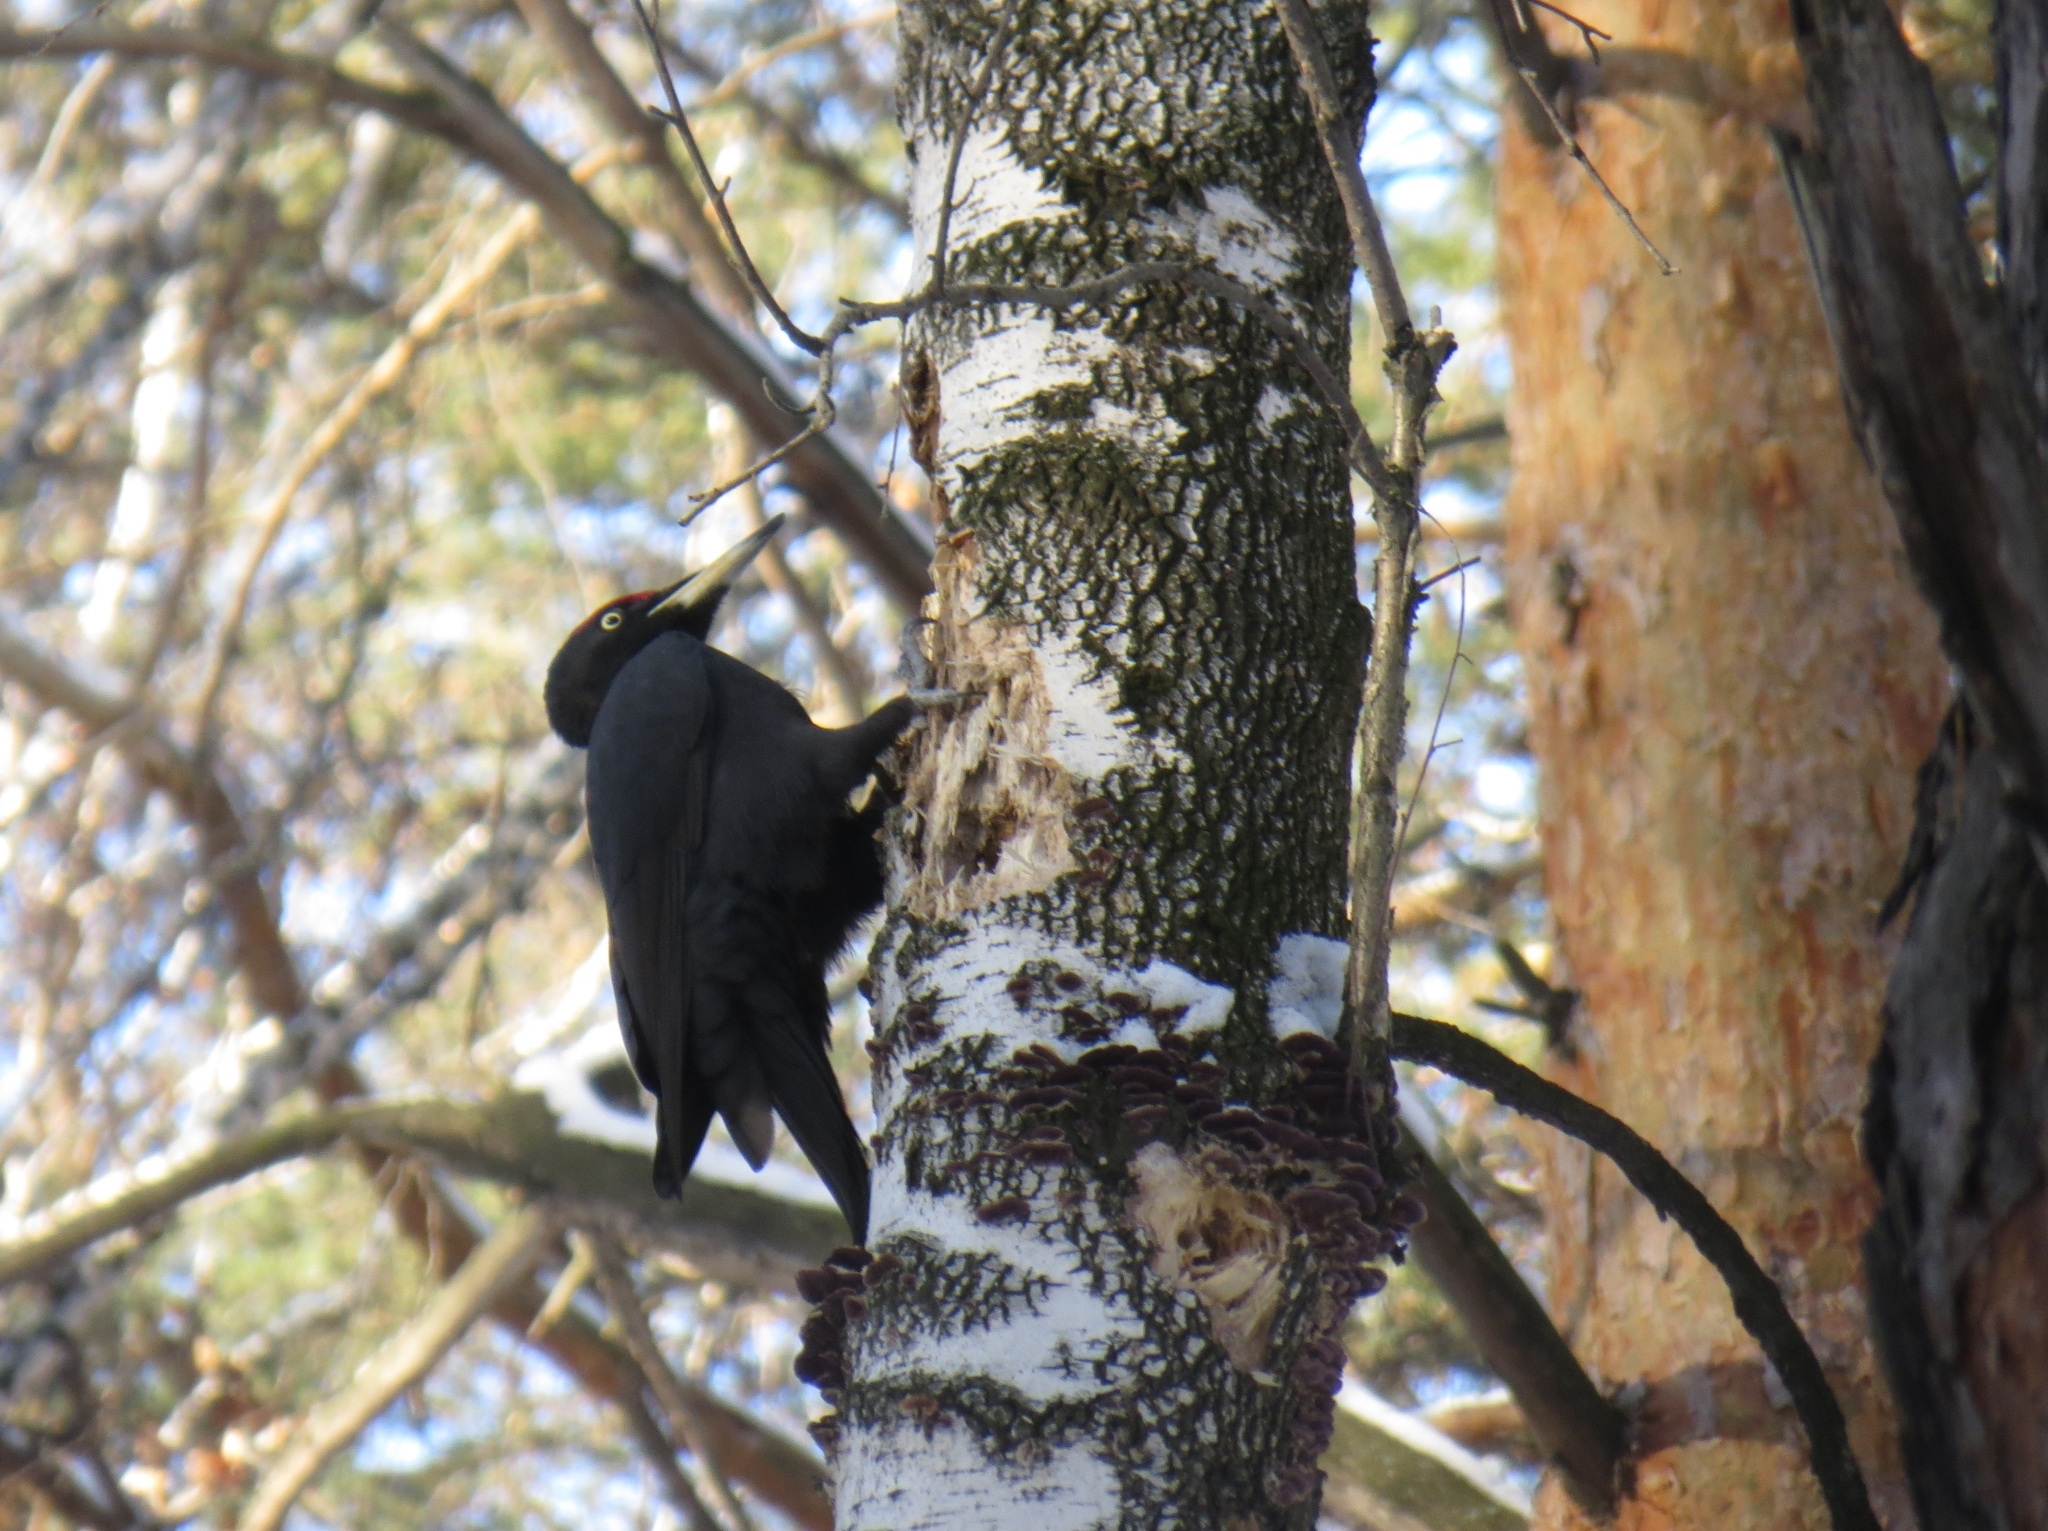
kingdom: Animalia
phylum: Chordata
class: Aves
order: Piciformes
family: Picidae
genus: Dryocopus
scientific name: Dryocopus martius
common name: Black woodpecker
